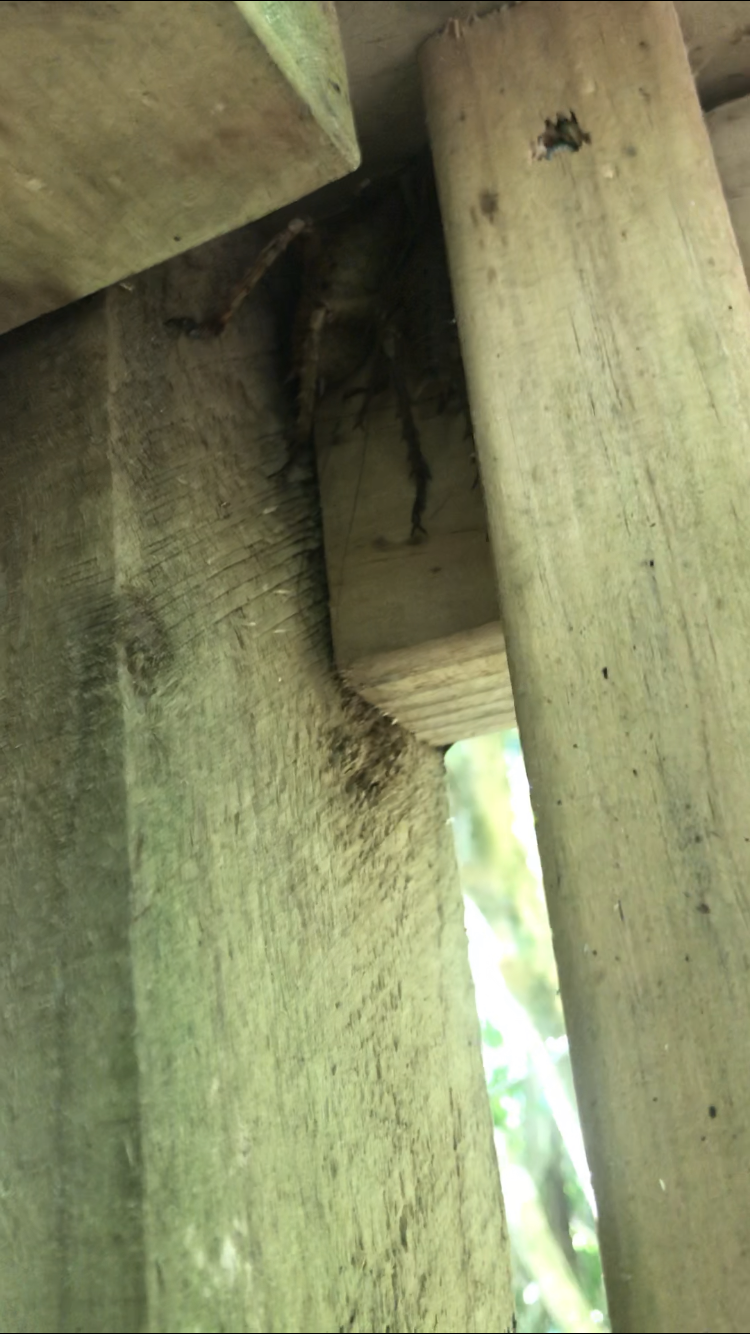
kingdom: Animalia
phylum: Arthropoda
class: Insecta
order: Orthoptera
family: Anostostomatidae
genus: Deinacrida
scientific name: Deinacrida heteracantha
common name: Wetapunga
